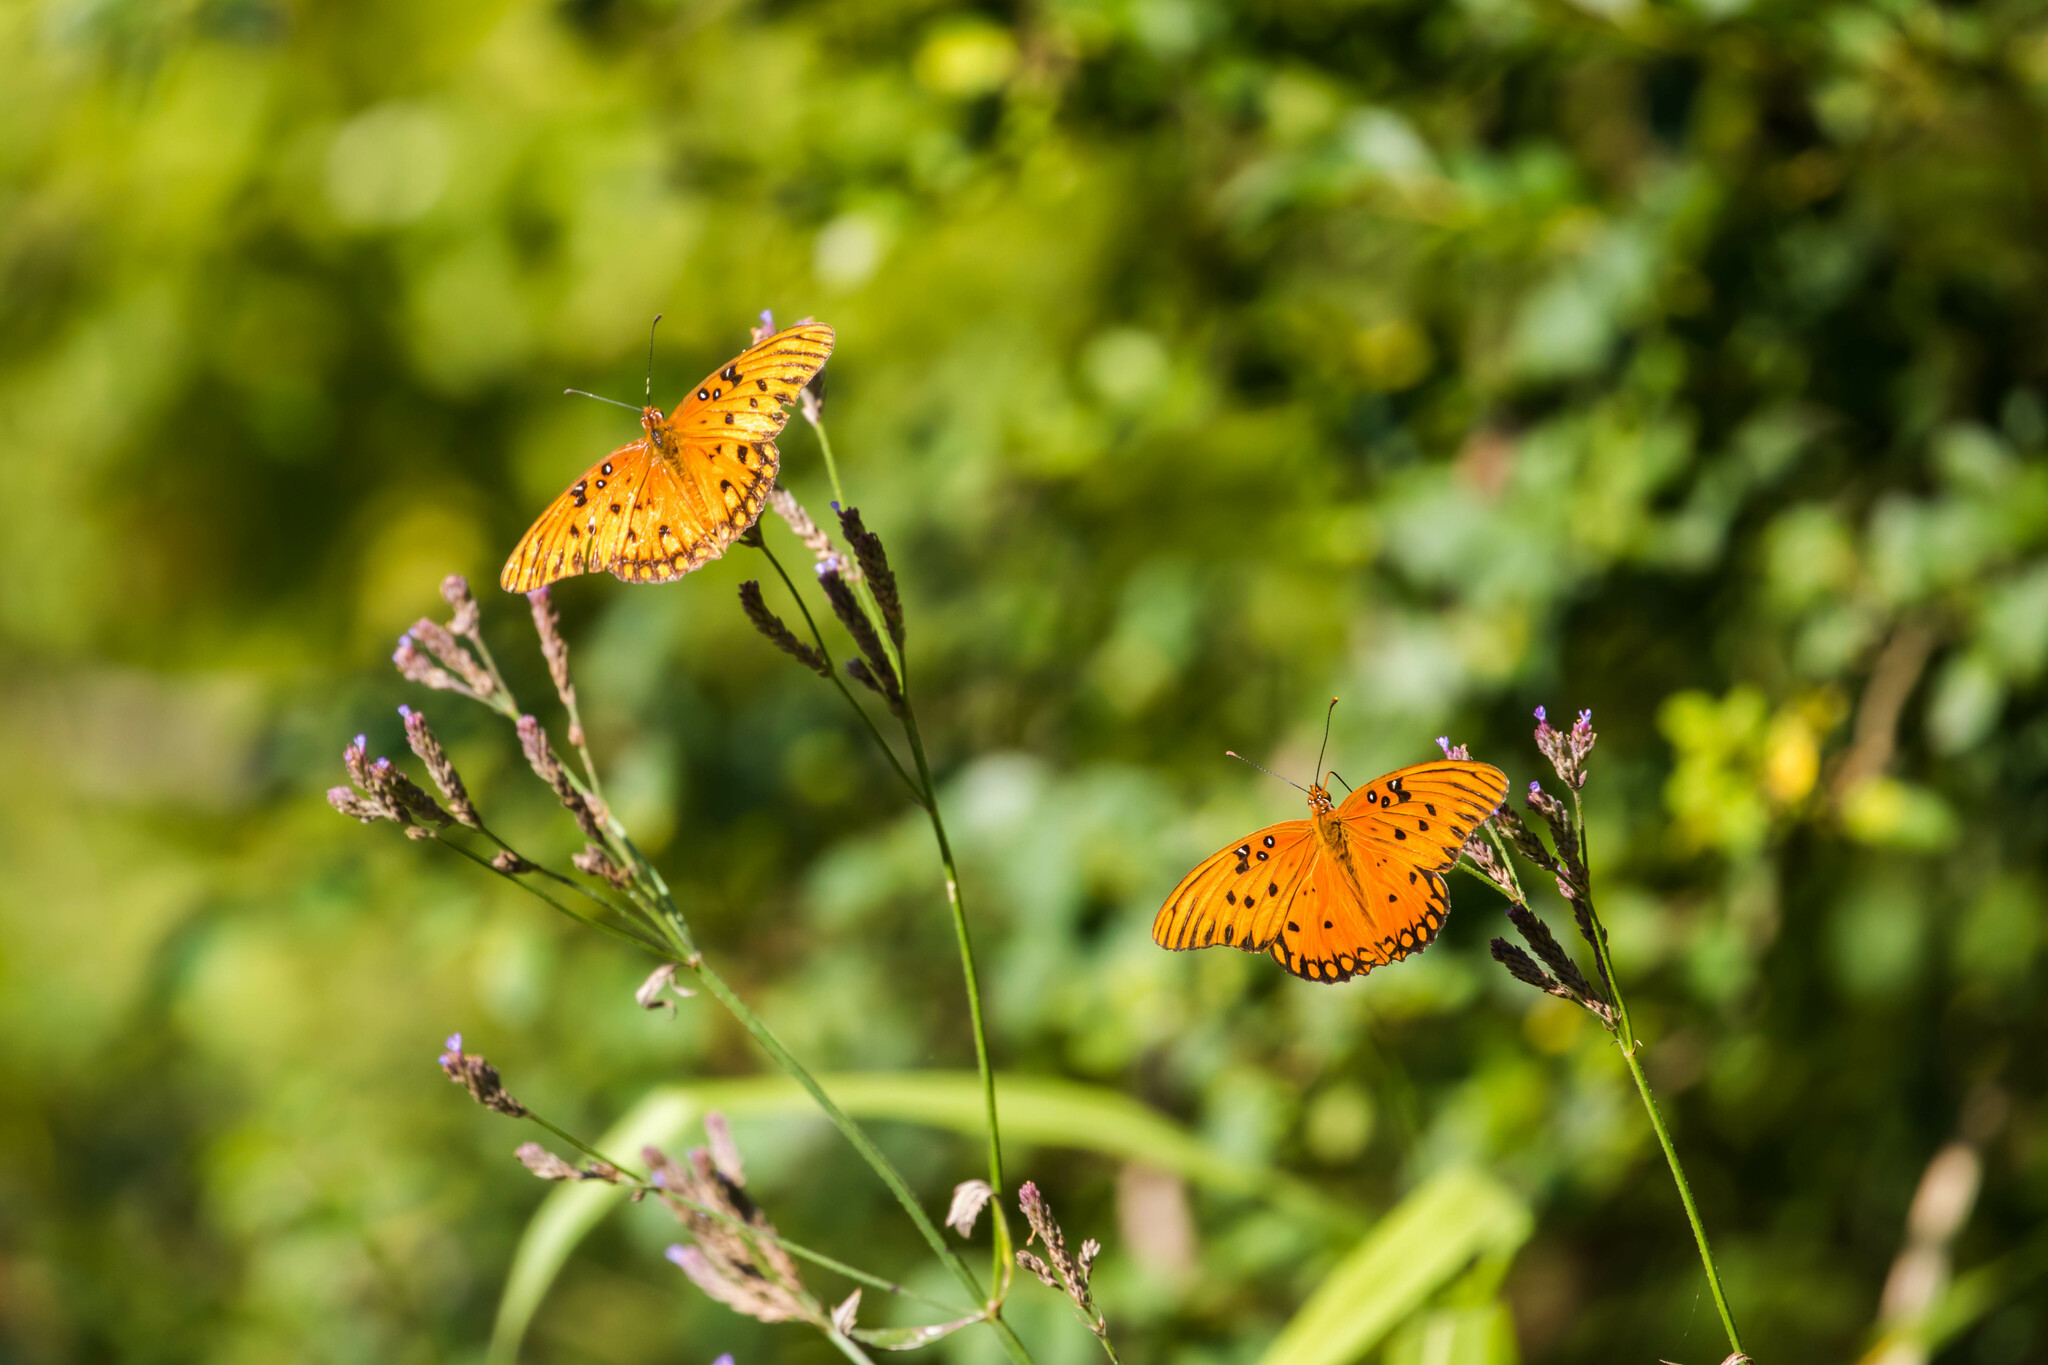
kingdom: Animalia
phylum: Arthropoda
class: Insecta
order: Lepidoptera
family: Nymphalidae
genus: Dione
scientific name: Dione vanillae
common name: Gulf fritillary
